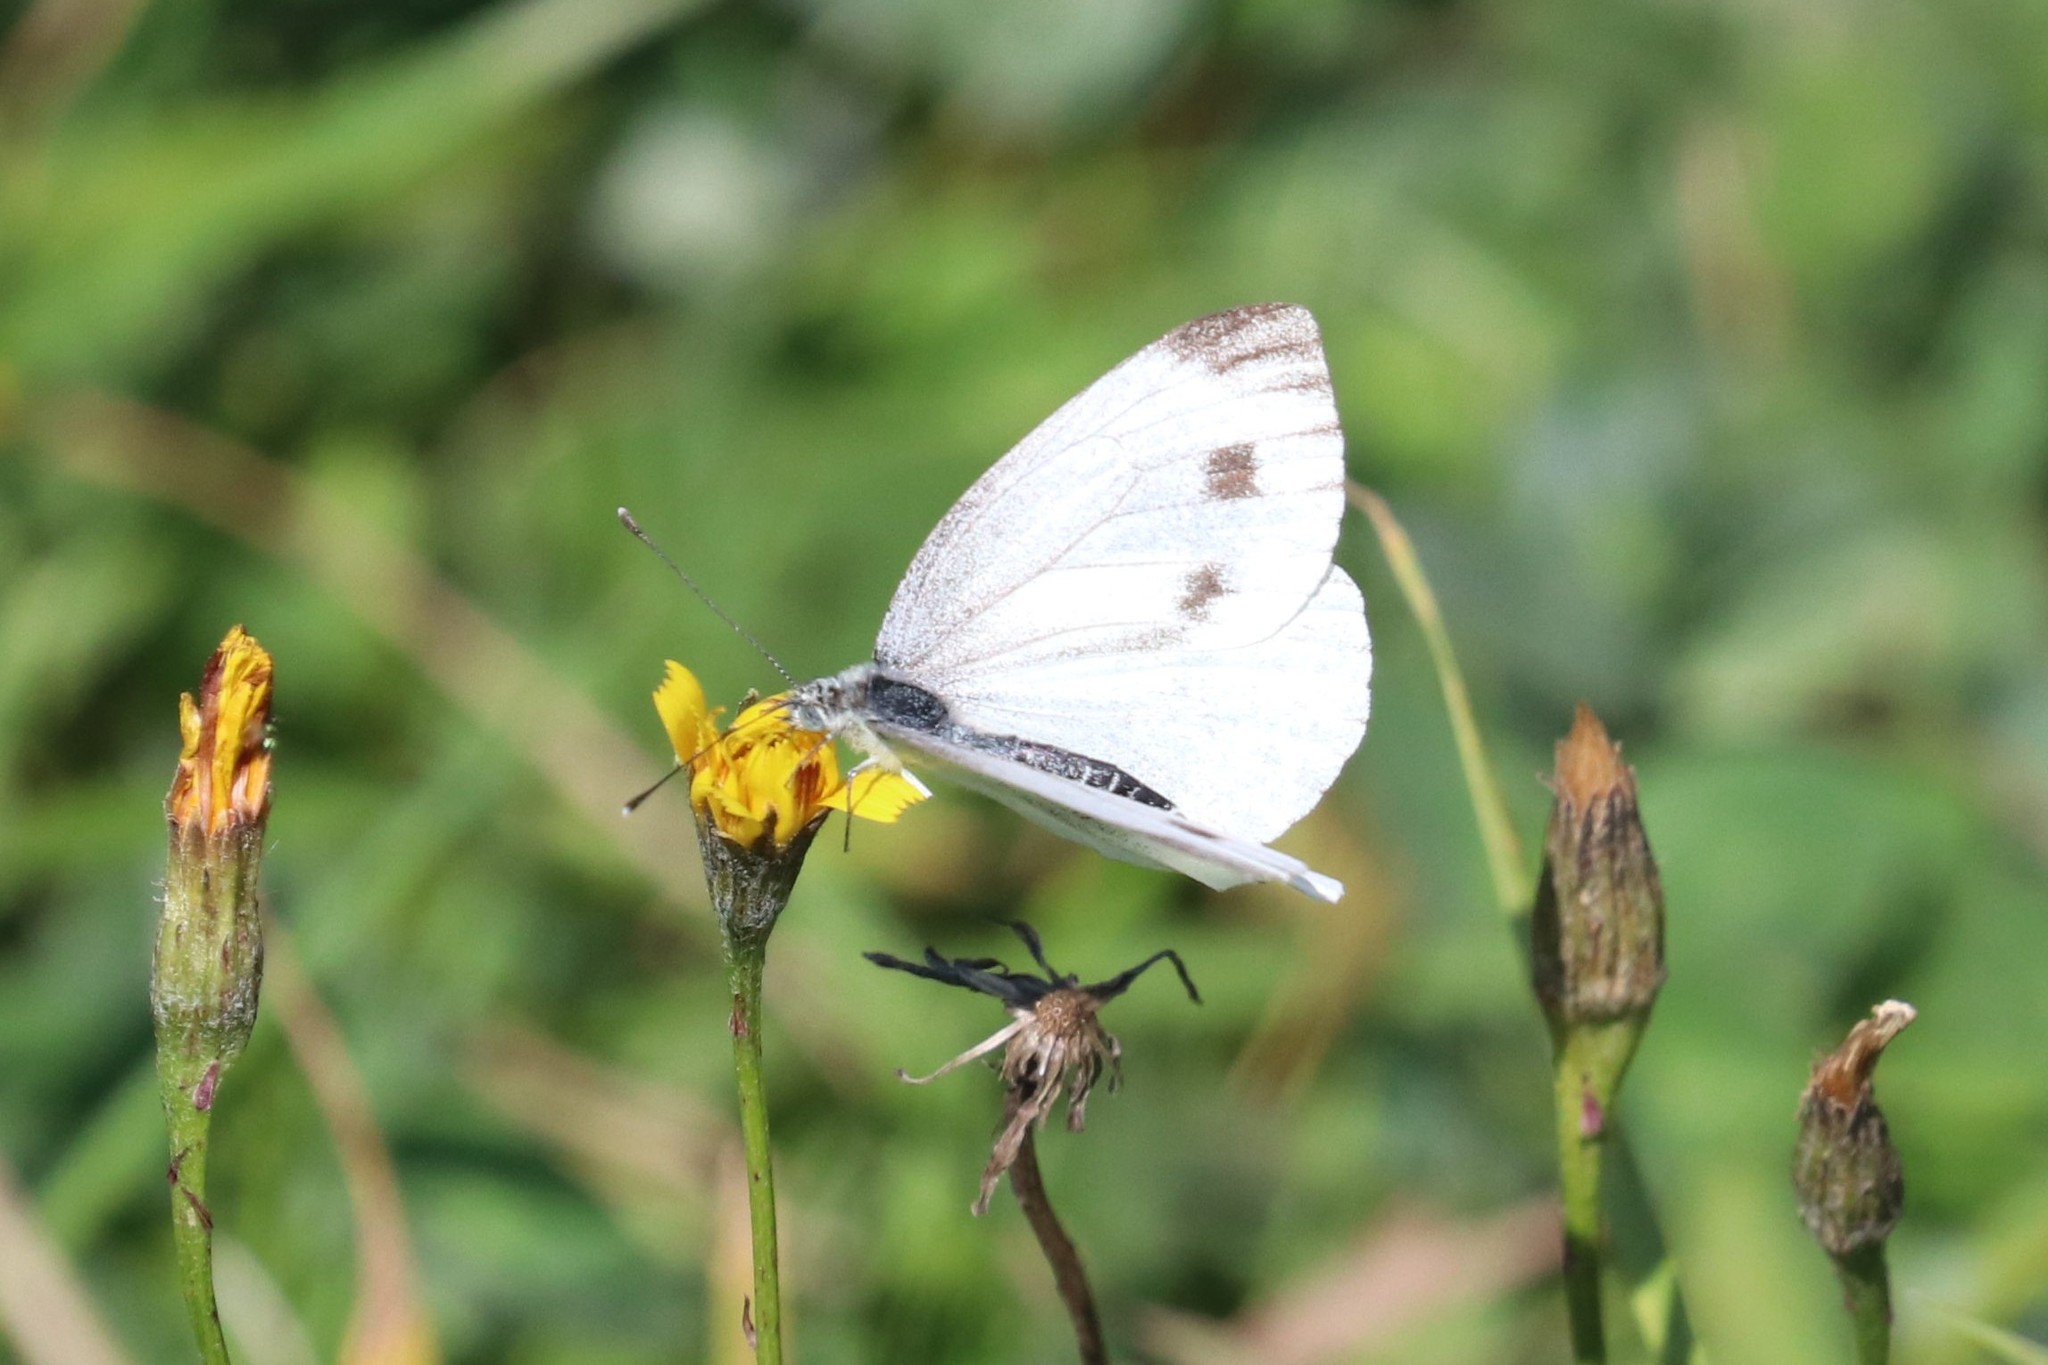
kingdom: Animalia
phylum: Arthropoda
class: Insecta
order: Lepidoptera
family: Pieridae
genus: Pieris
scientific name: Pieris napi
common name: Green-veined white
